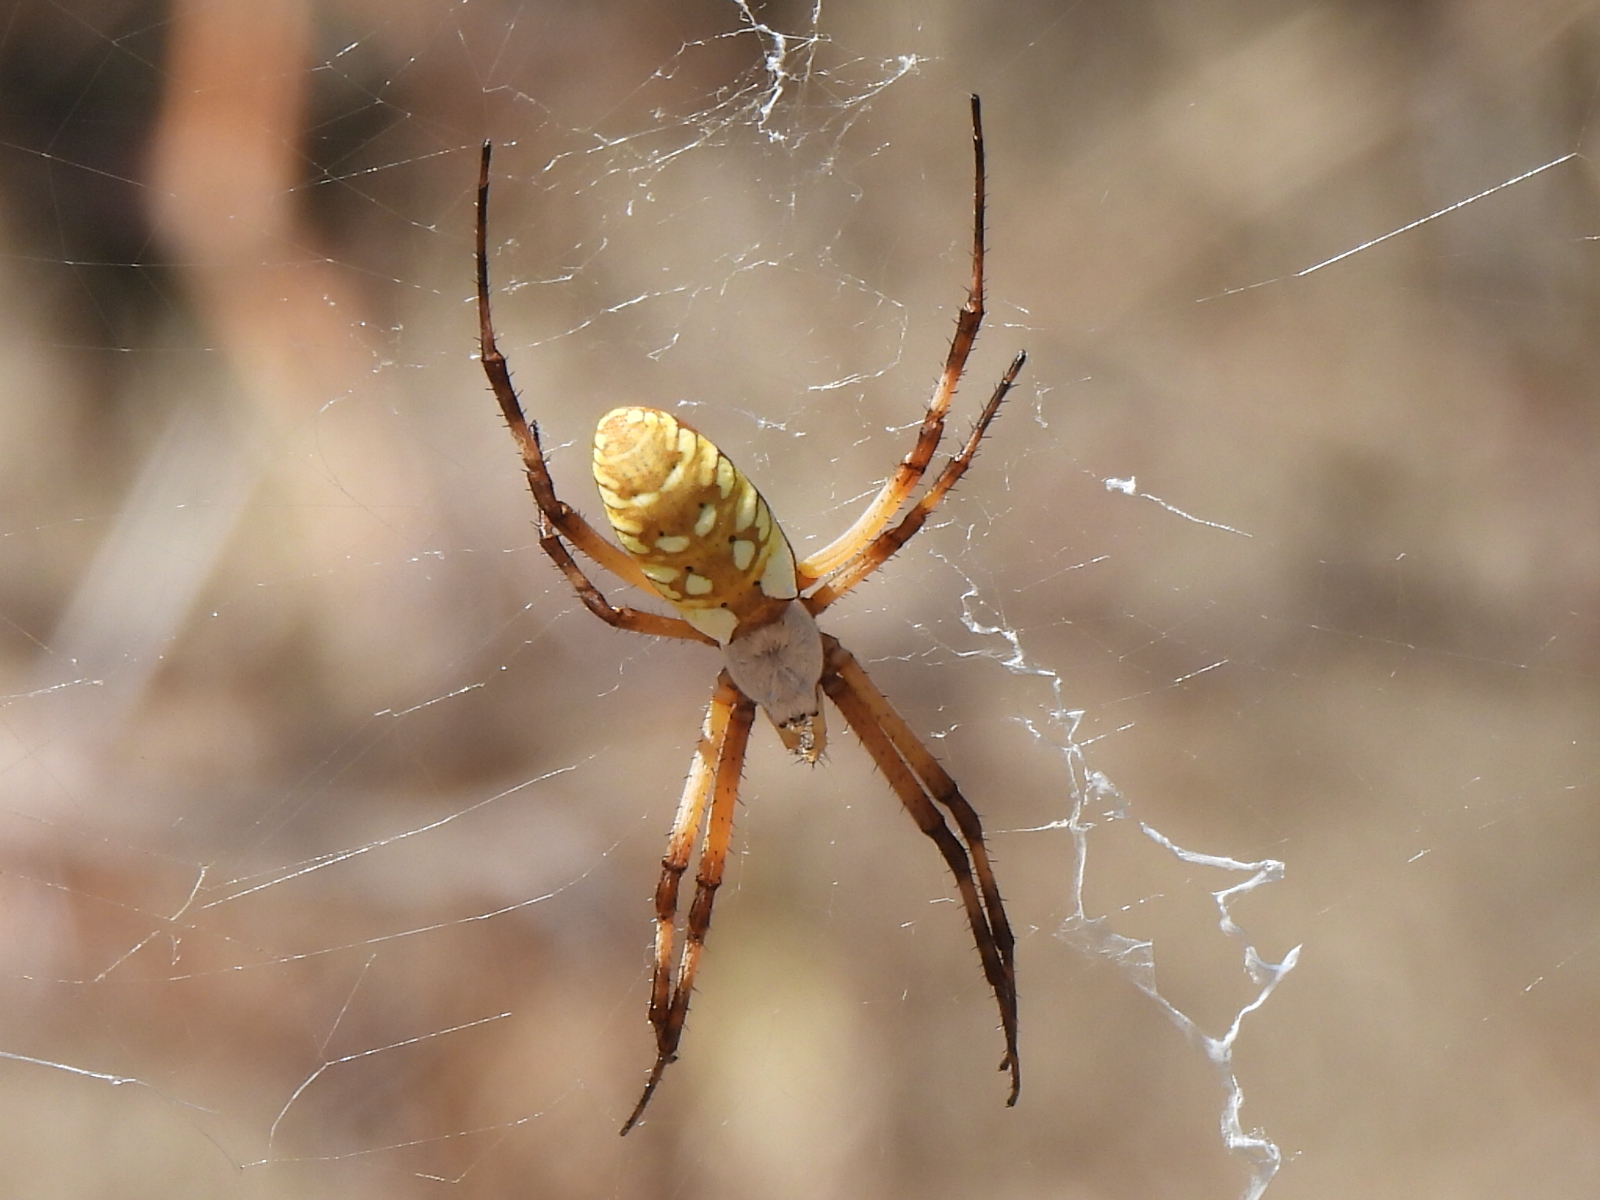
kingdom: Animalia
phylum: Arthropoda
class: Arachnida
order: Araneae
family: Araneidae
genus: Argiope
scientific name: Argiope aurantia
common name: Orb weavers
